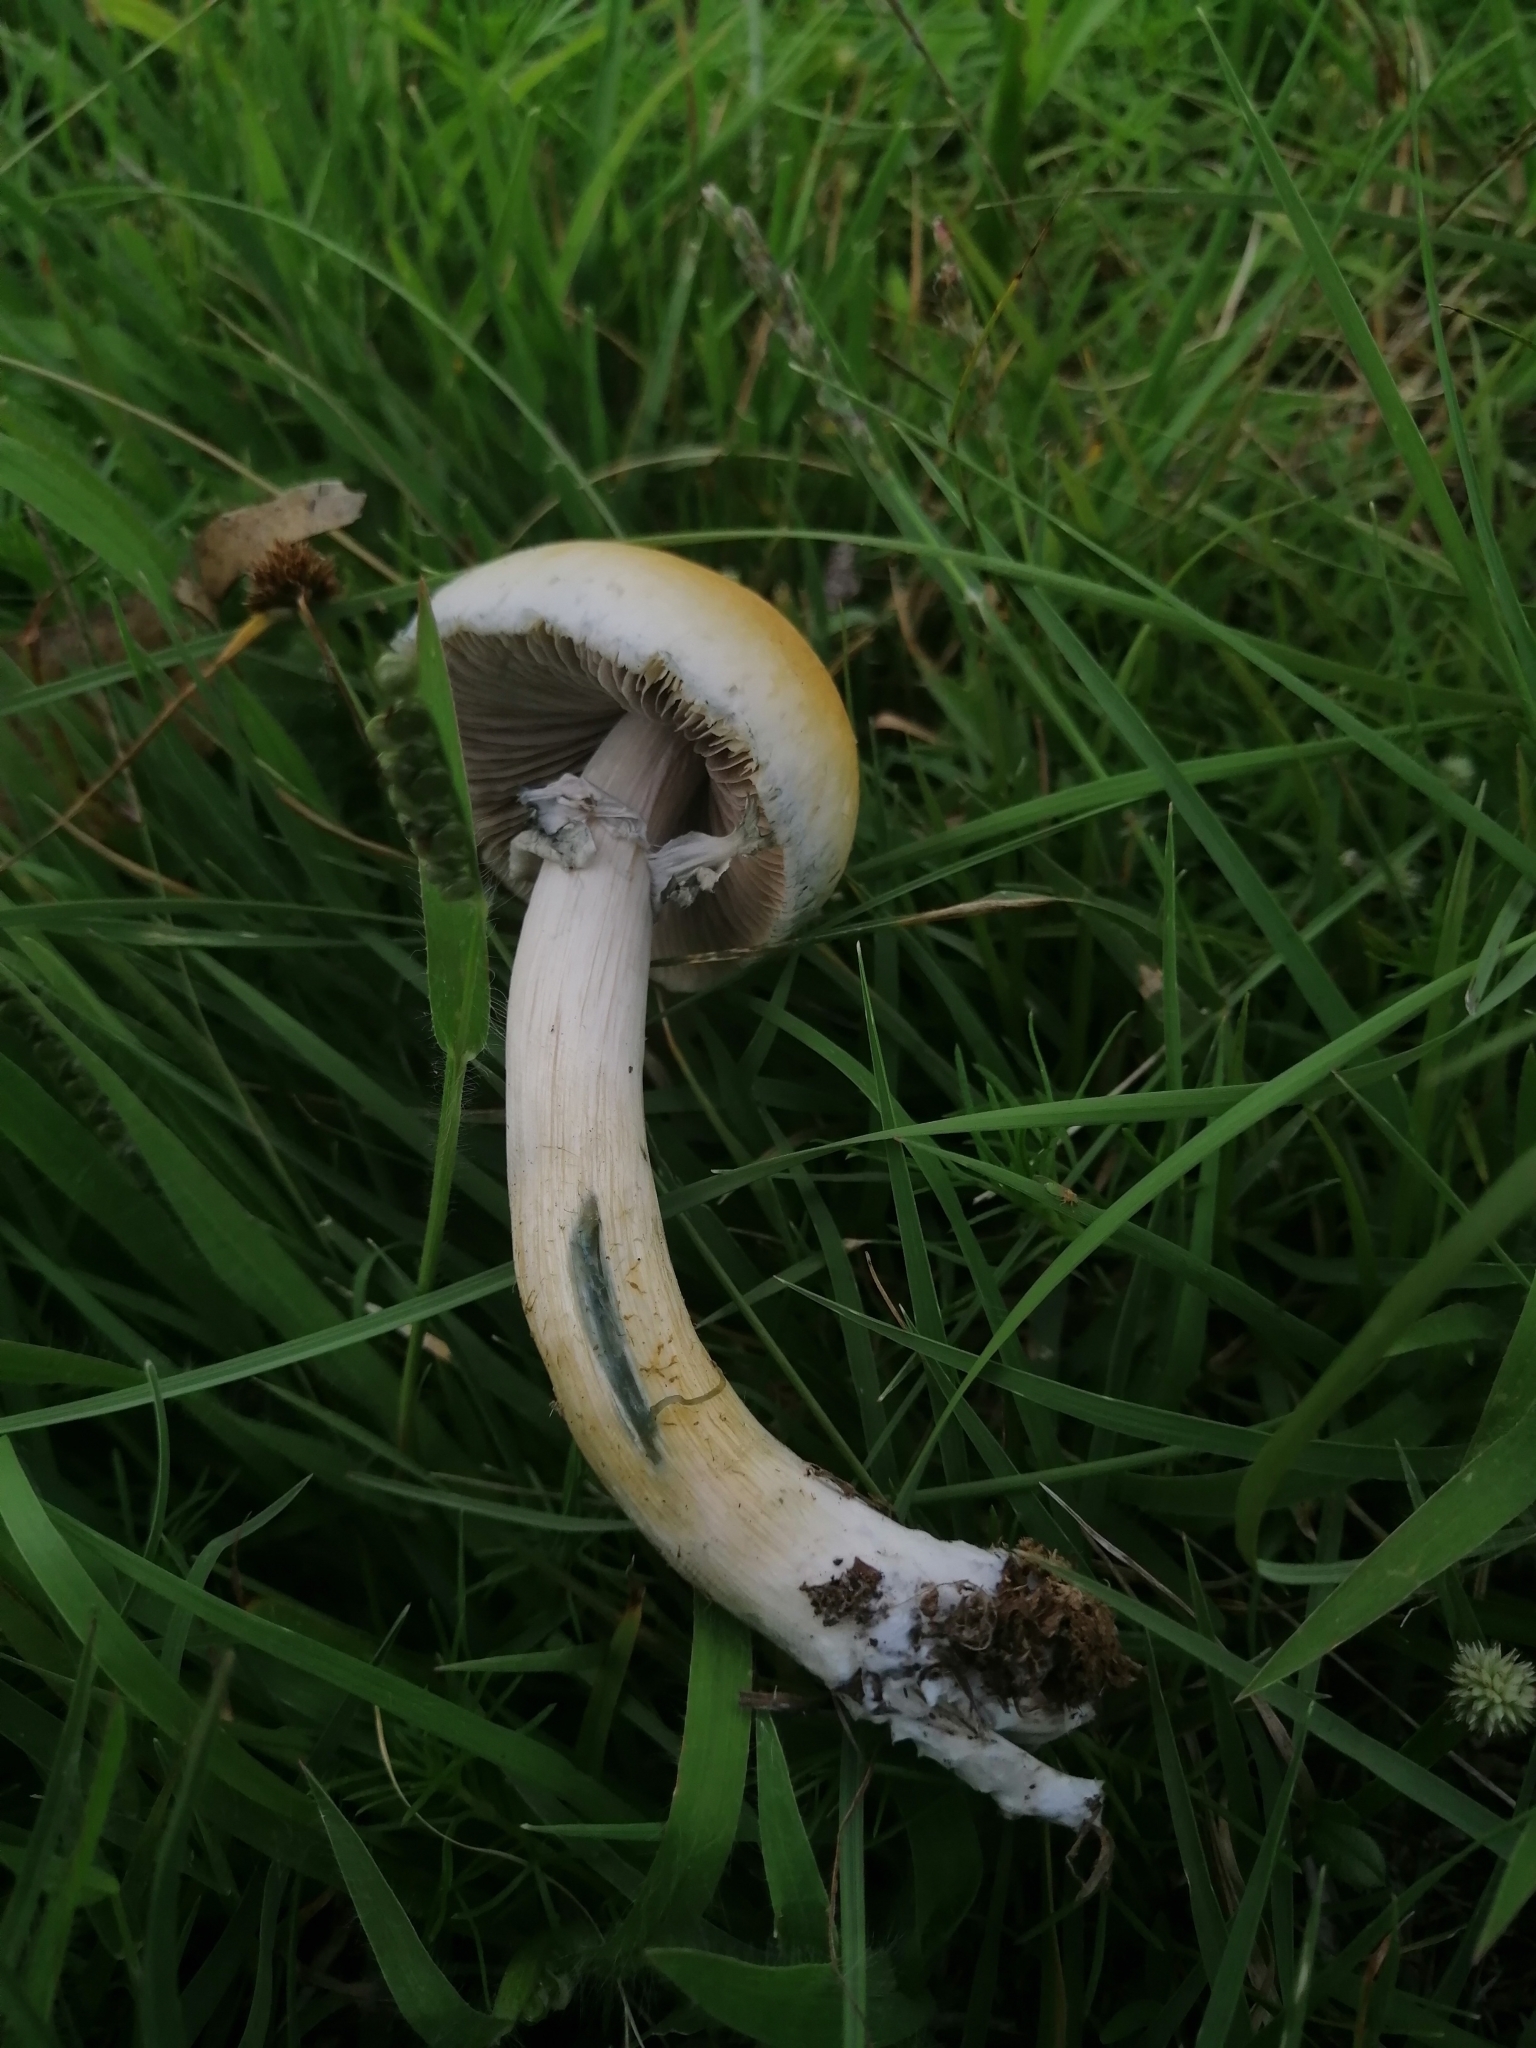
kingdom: Fungi
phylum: Basidiomycota
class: Agaricomycetes
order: Agaricales
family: Hymenogastraceae
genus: Psilocybe
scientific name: Psilocybe cubensis
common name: Golden brownie
